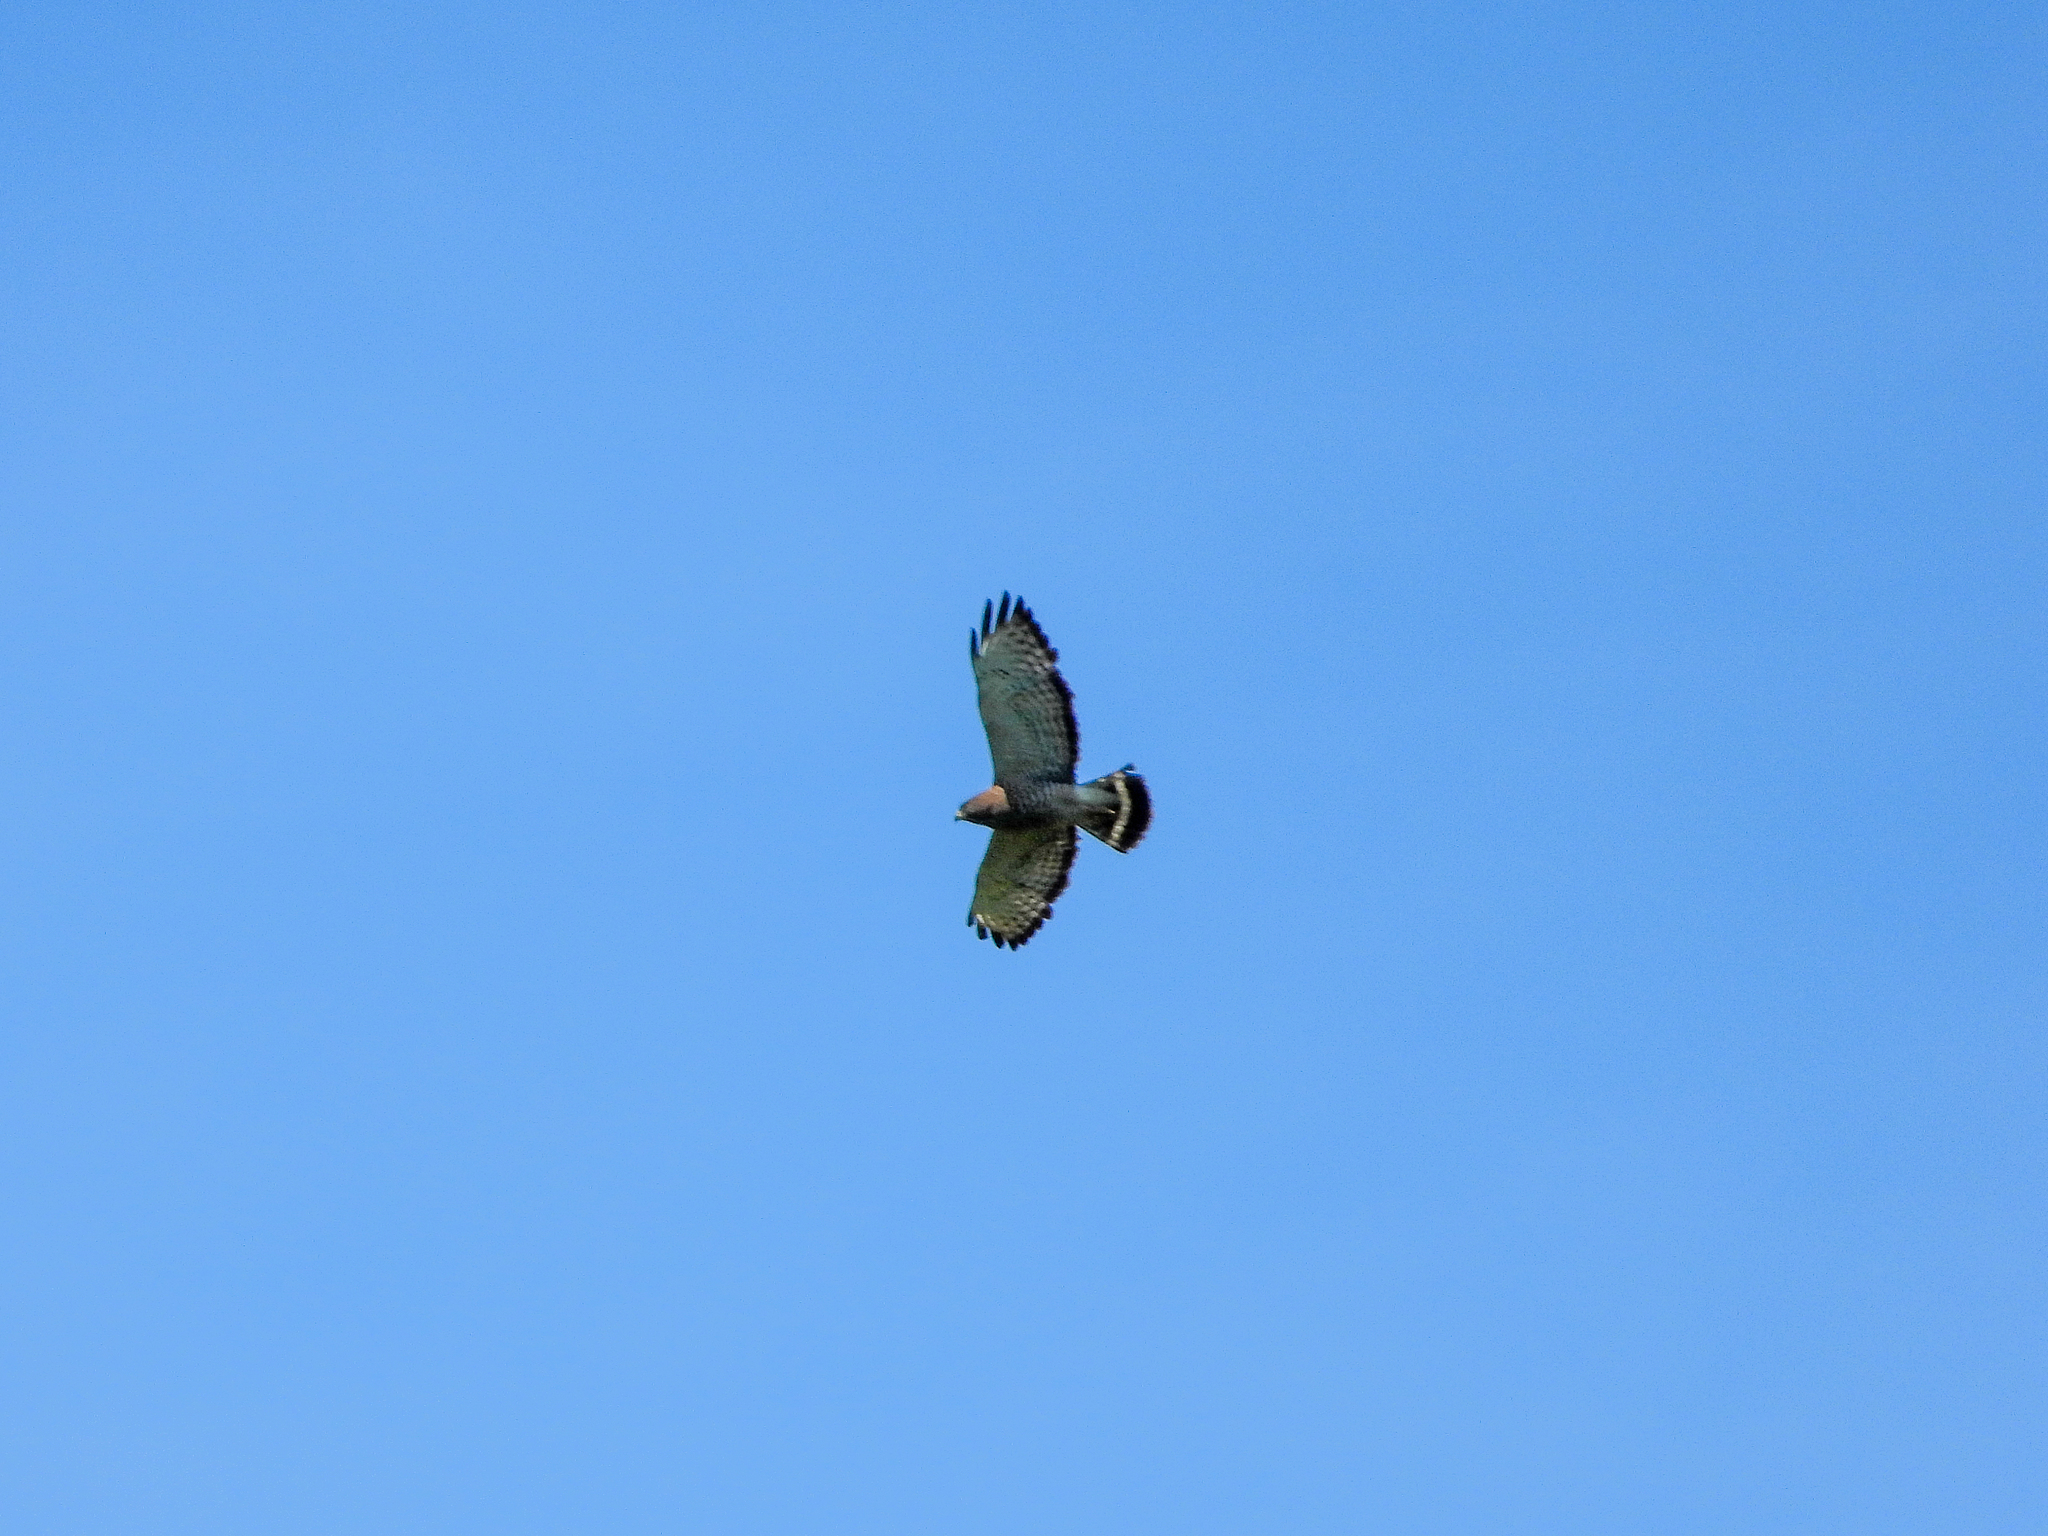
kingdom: Animalia
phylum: Chordata
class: Aves
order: Accipitriformes
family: Accipitridae
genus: Buteo
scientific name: Buteo platypterus
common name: Broad-winged hawk
